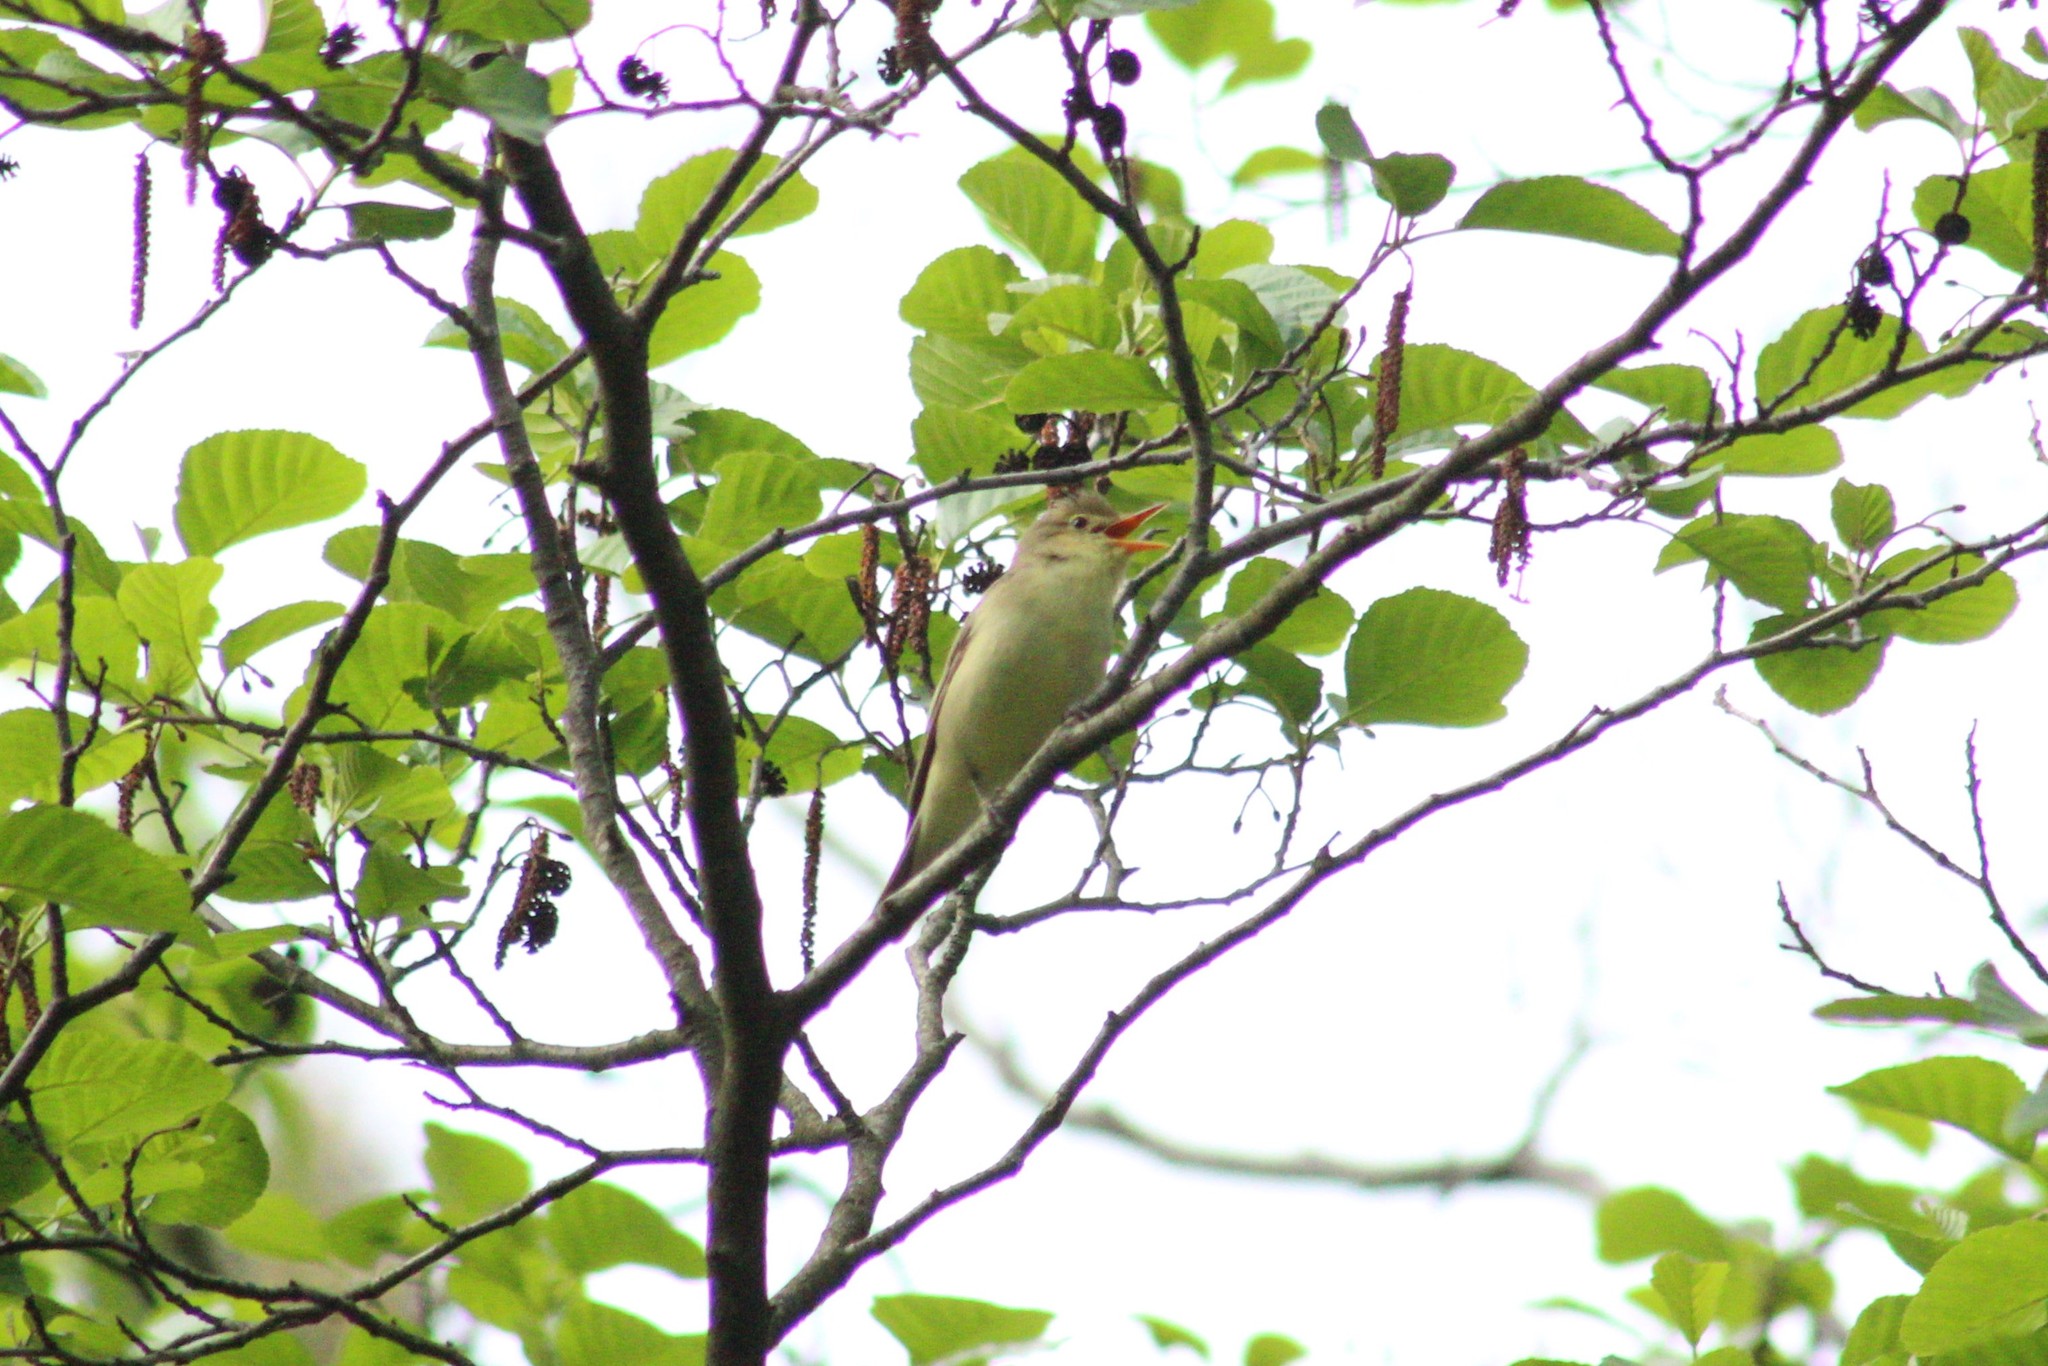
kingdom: Animalia
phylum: Chordata
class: Aves
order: Passeriformes
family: Acrocephalidae
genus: Hippolais
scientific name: Hippolais icterina
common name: Icterine warbler
